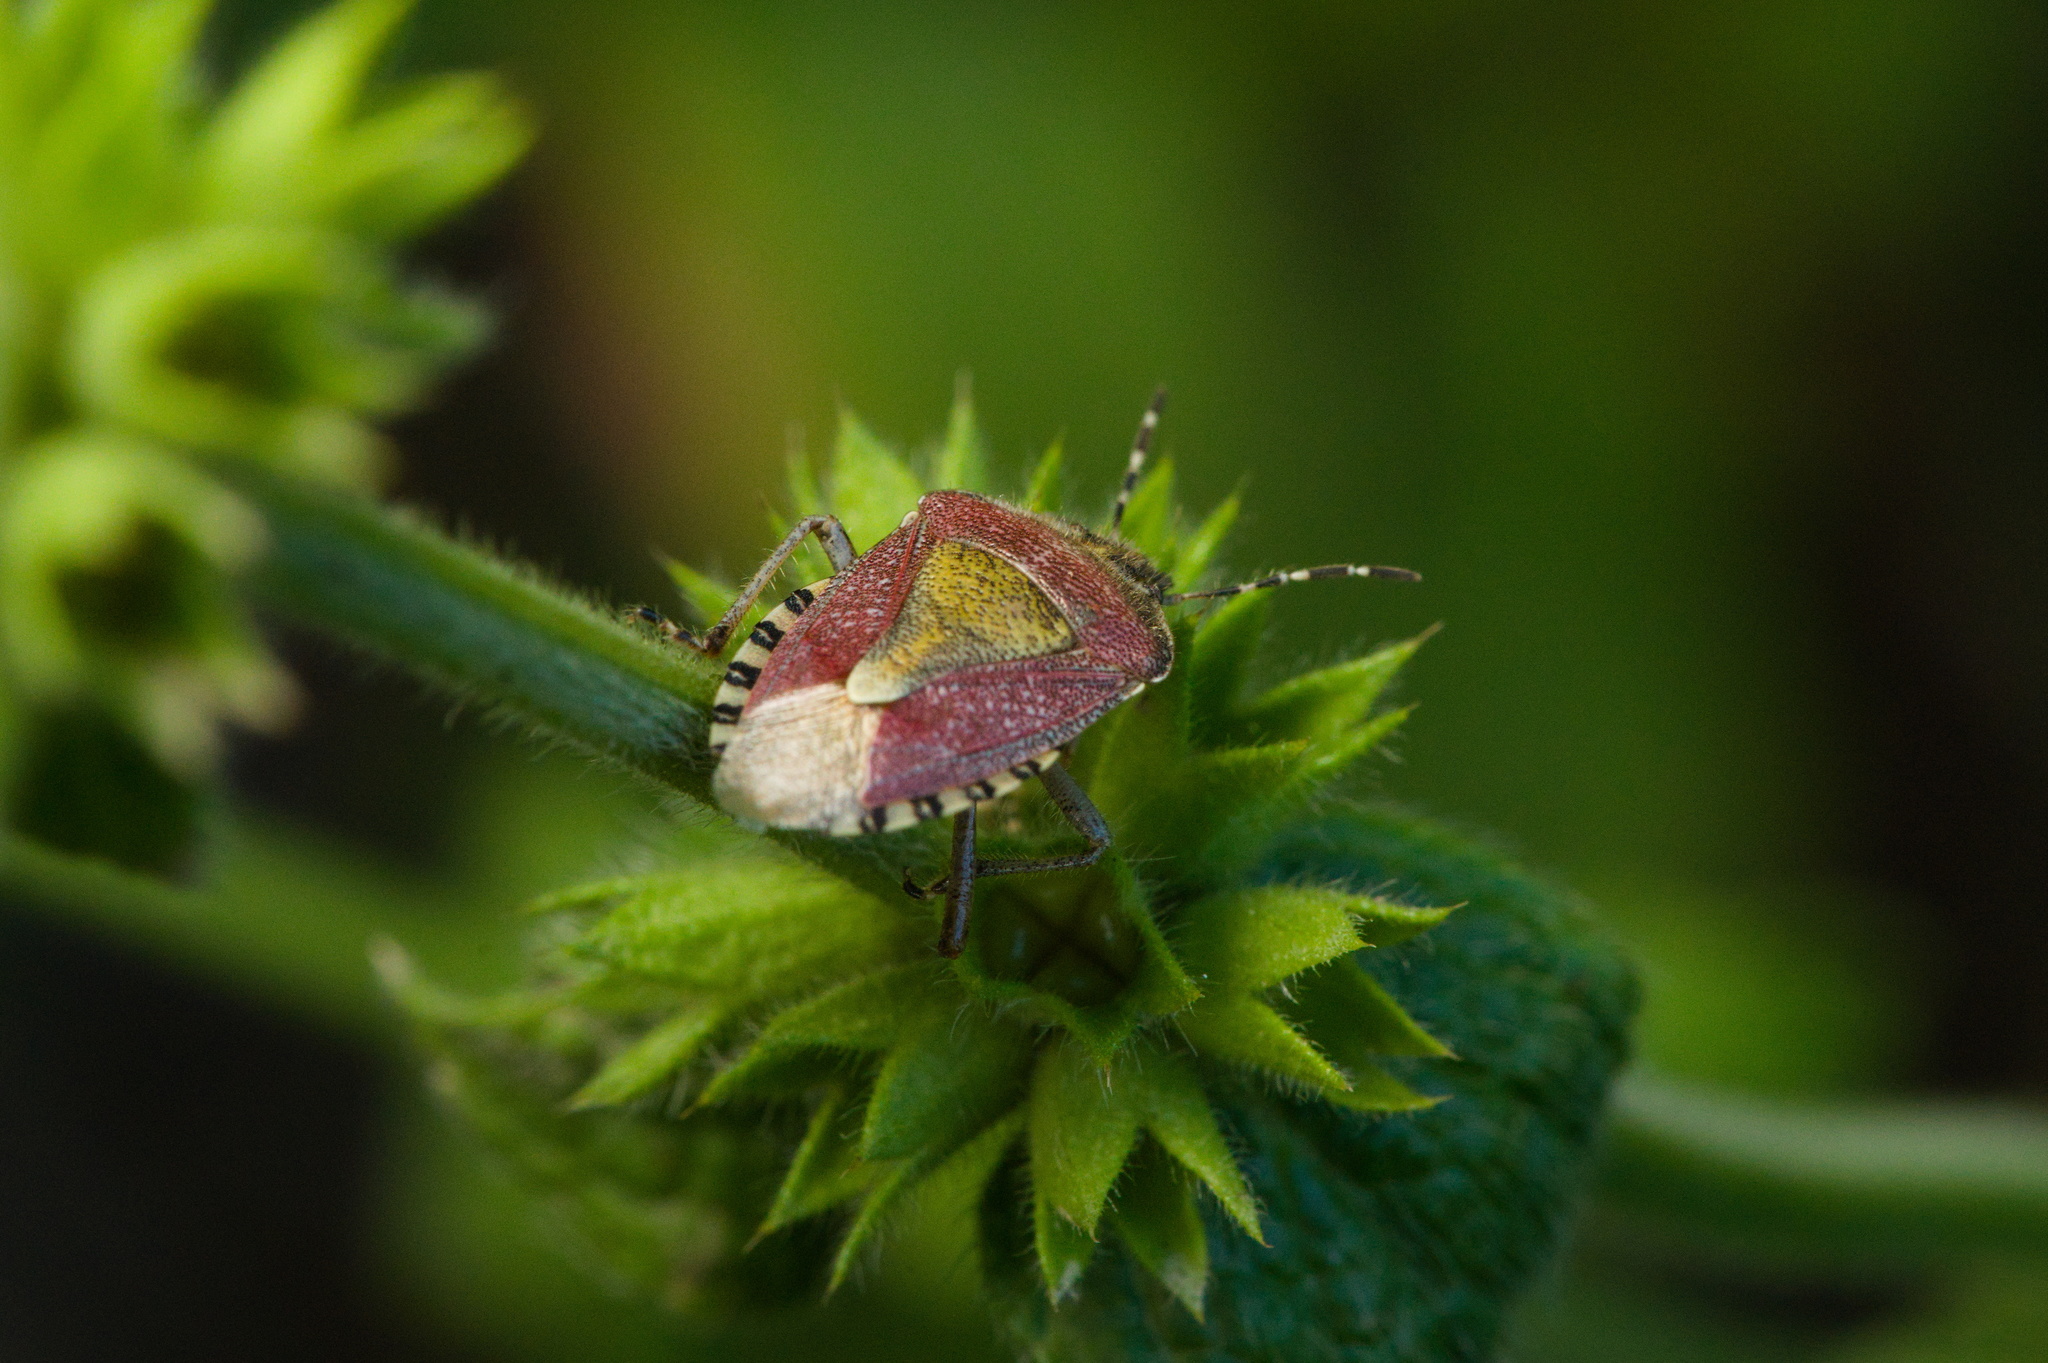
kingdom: Animalia
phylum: Arthropoda
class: Insecta
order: Hemiptera
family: Pentatomidae
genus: Dolycoris
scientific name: Dolycoris baccarum
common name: Sloe bug
